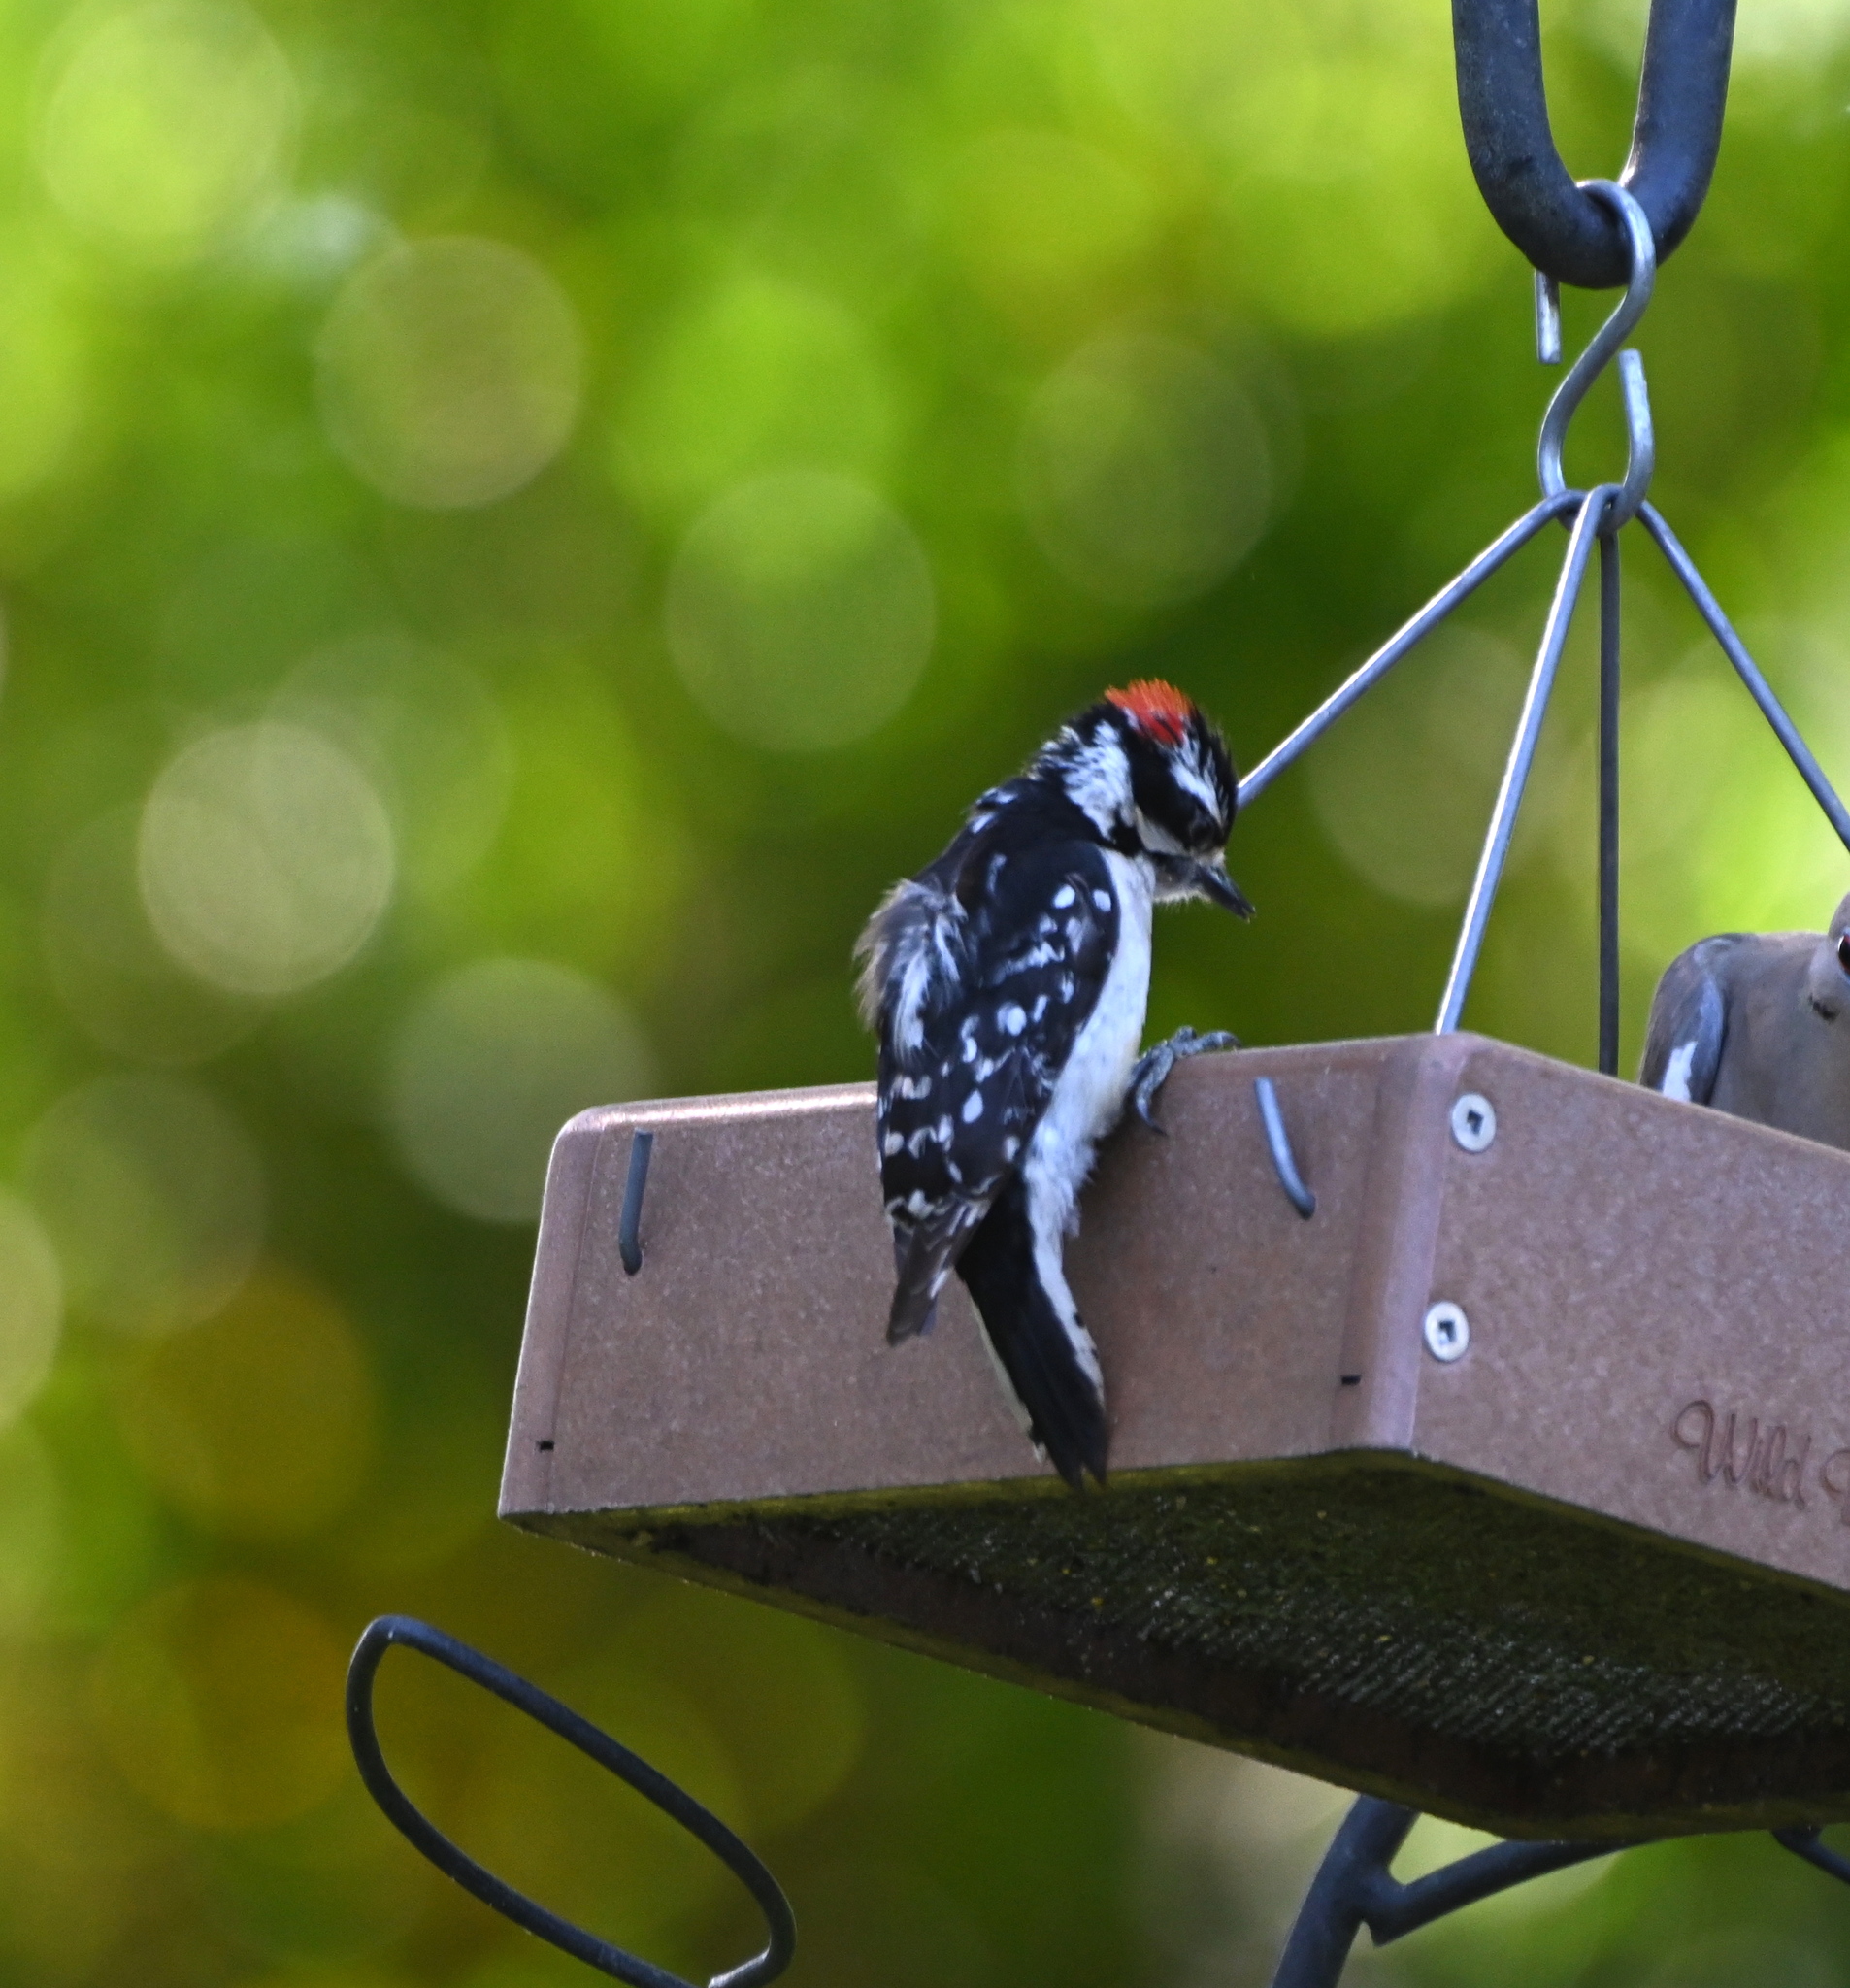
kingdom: Animalia
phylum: Chordata
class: Aves
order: Piciformes
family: Picidae
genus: Dryobates
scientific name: Dryobates pubescens
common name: Downy woodpecker
